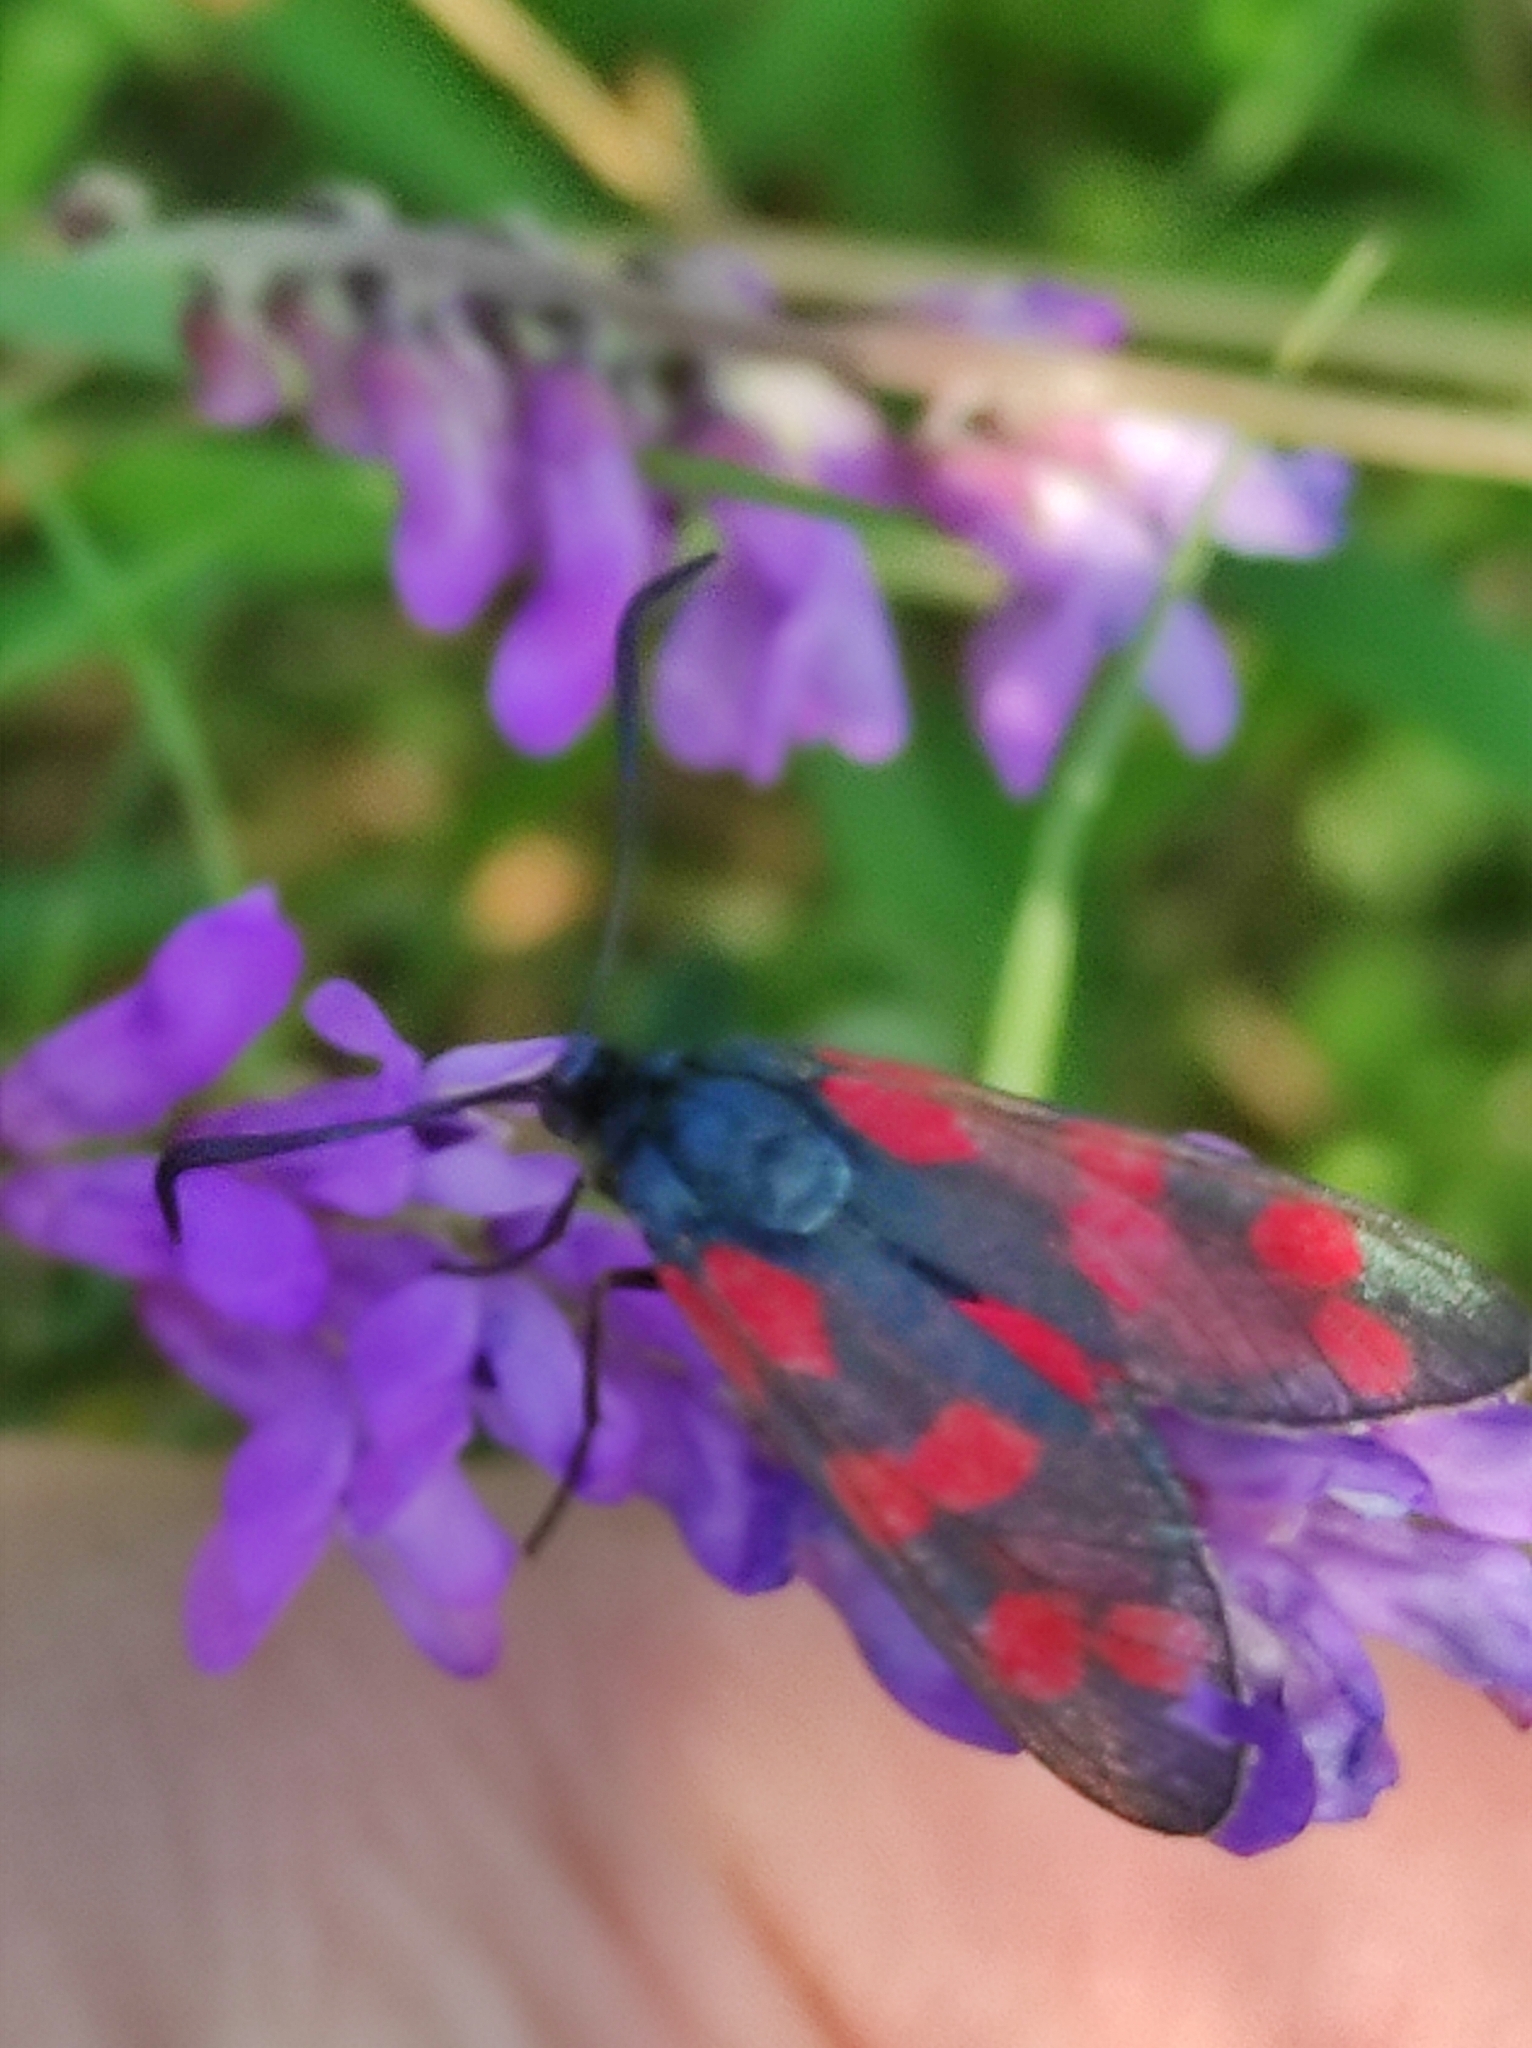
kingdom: Animalia
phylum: Arthropoda
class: Insecta
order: Lepidoptera
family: Zygaenidae
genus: Zygaena
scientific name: Zygaena filipendulae
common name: Six-spot burnet
